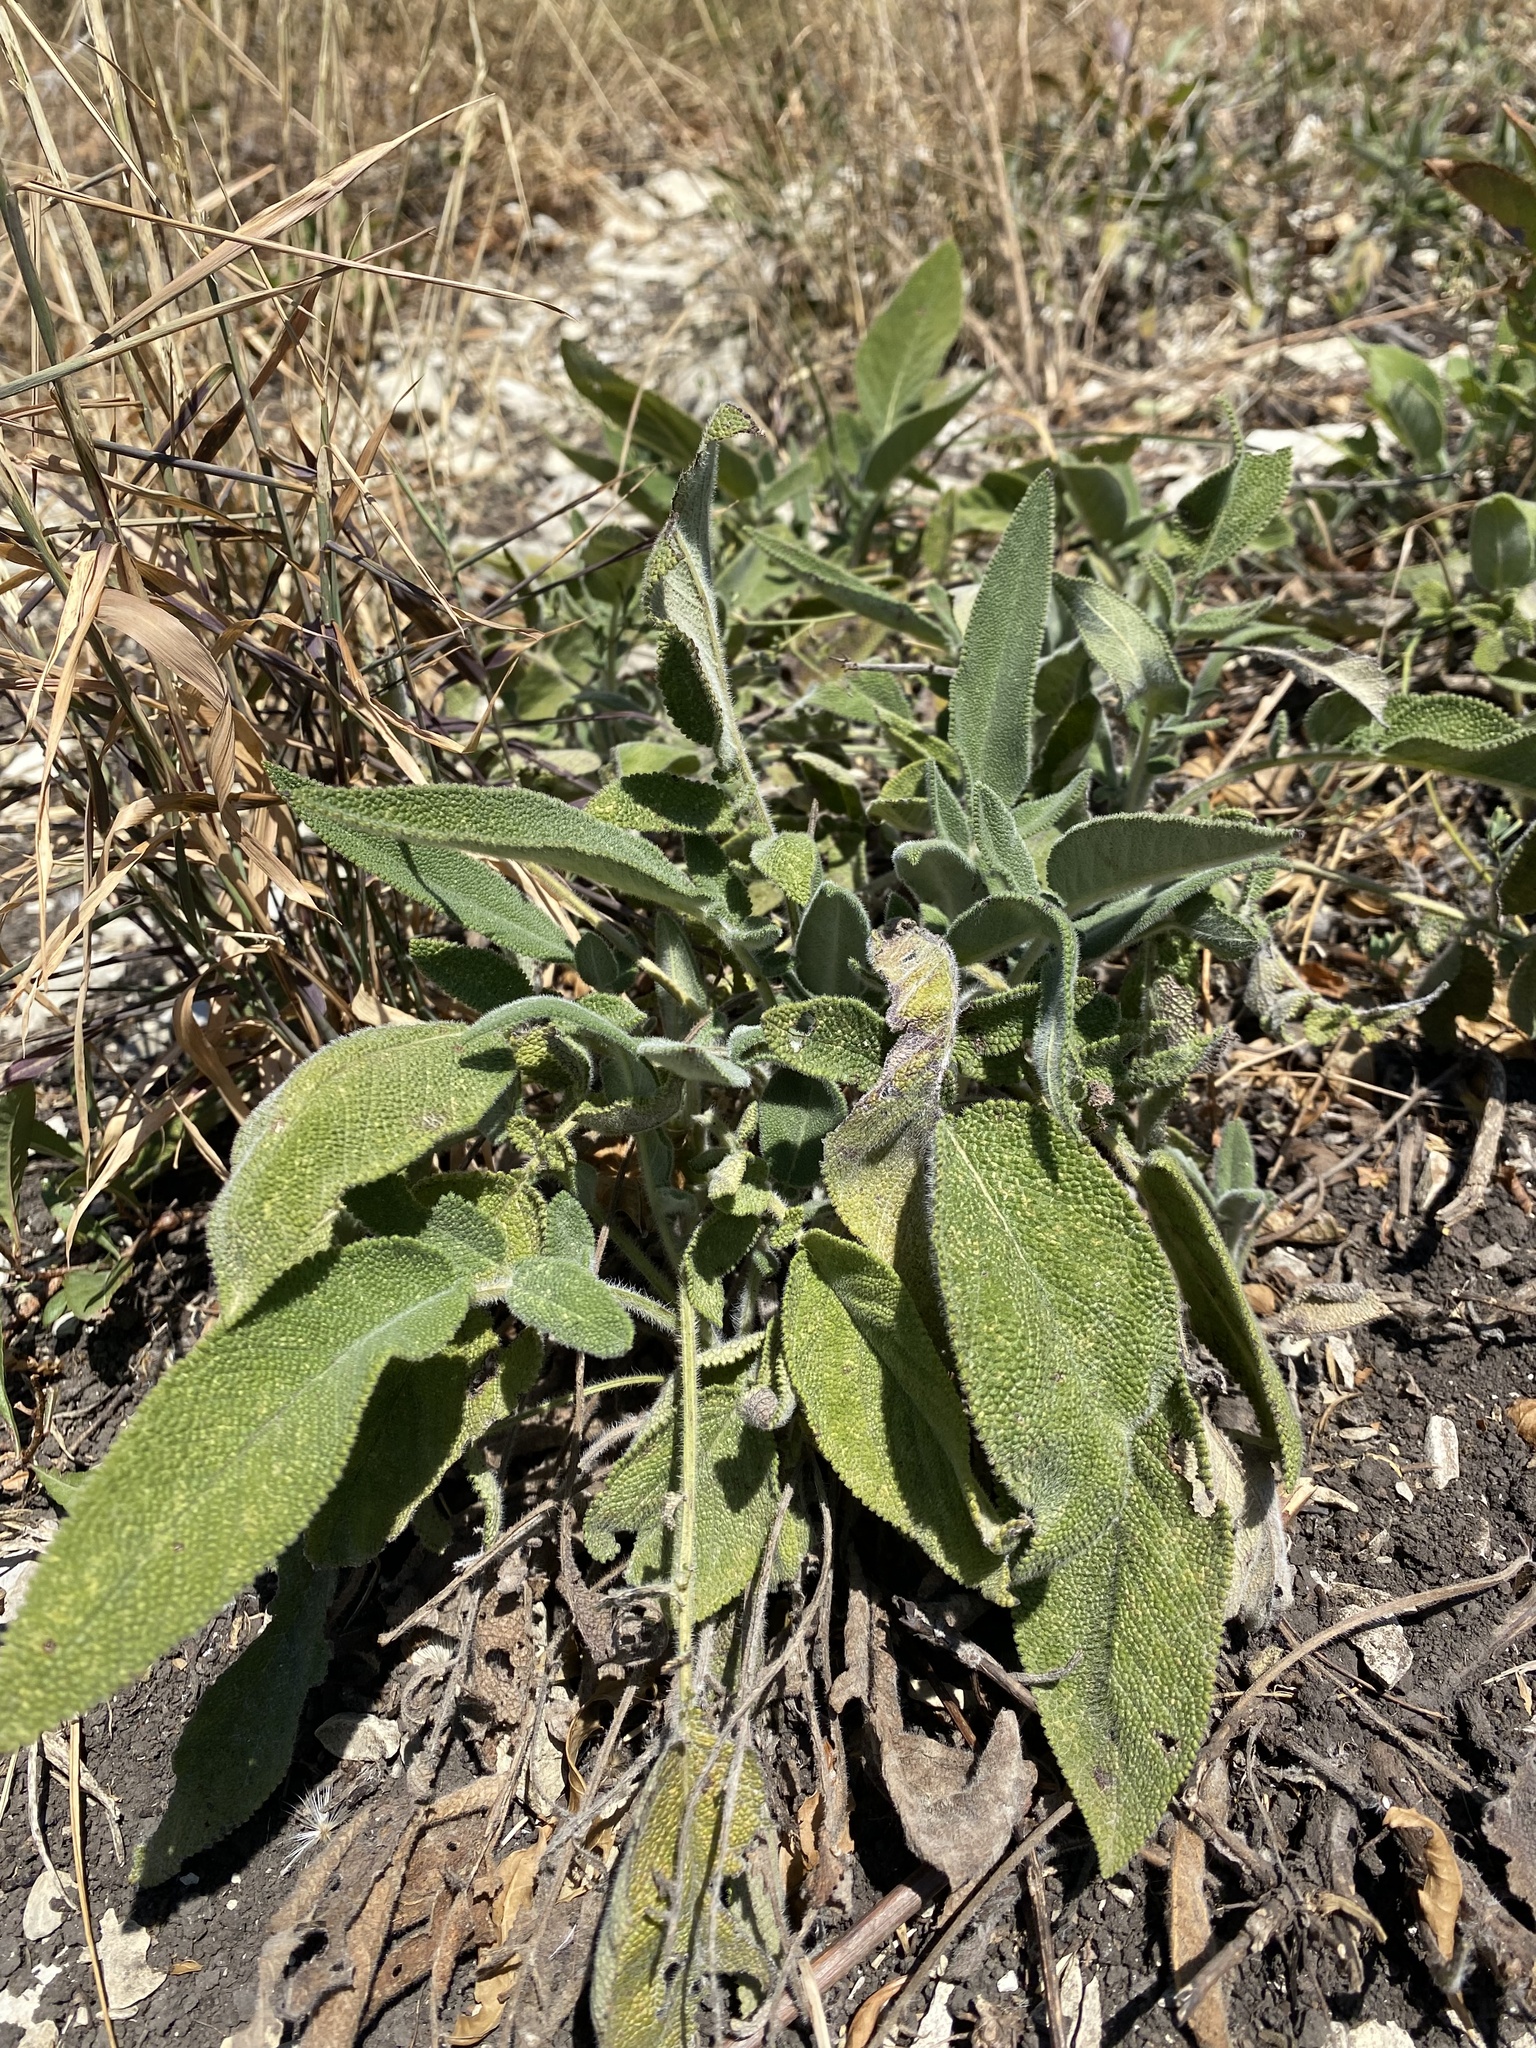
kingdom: Plantae
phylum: Tracheophyta
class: Magnoliopsida
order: Lamiales
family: Lamiaceae
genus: Salvia
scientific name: Salvia ringens
